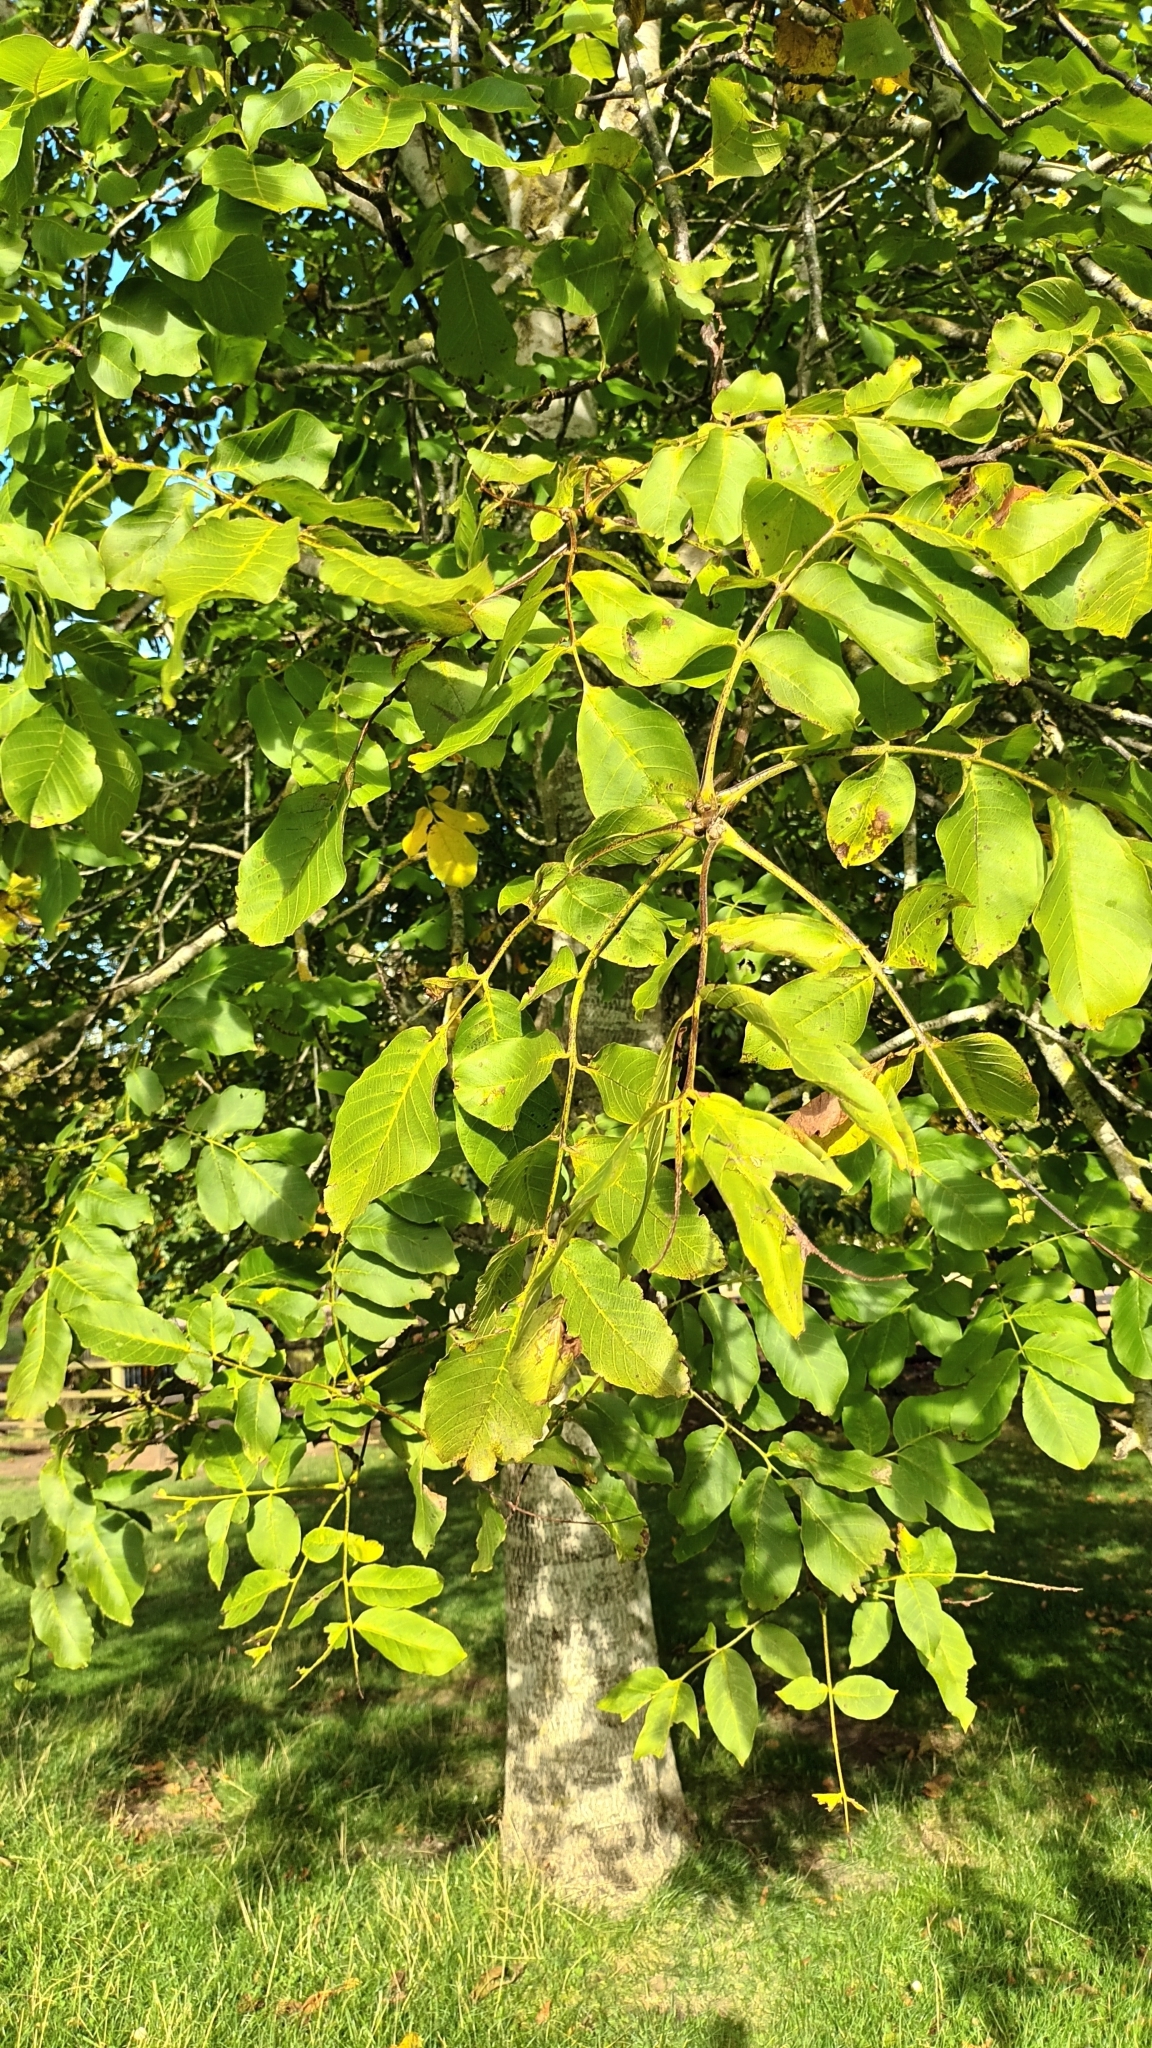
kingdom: Plantae
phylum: Tracheophyta
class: Magnoliopsida
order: Fagales
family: Juglandaceae
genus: Juglans
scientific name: Juglans regia
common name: Walnut
